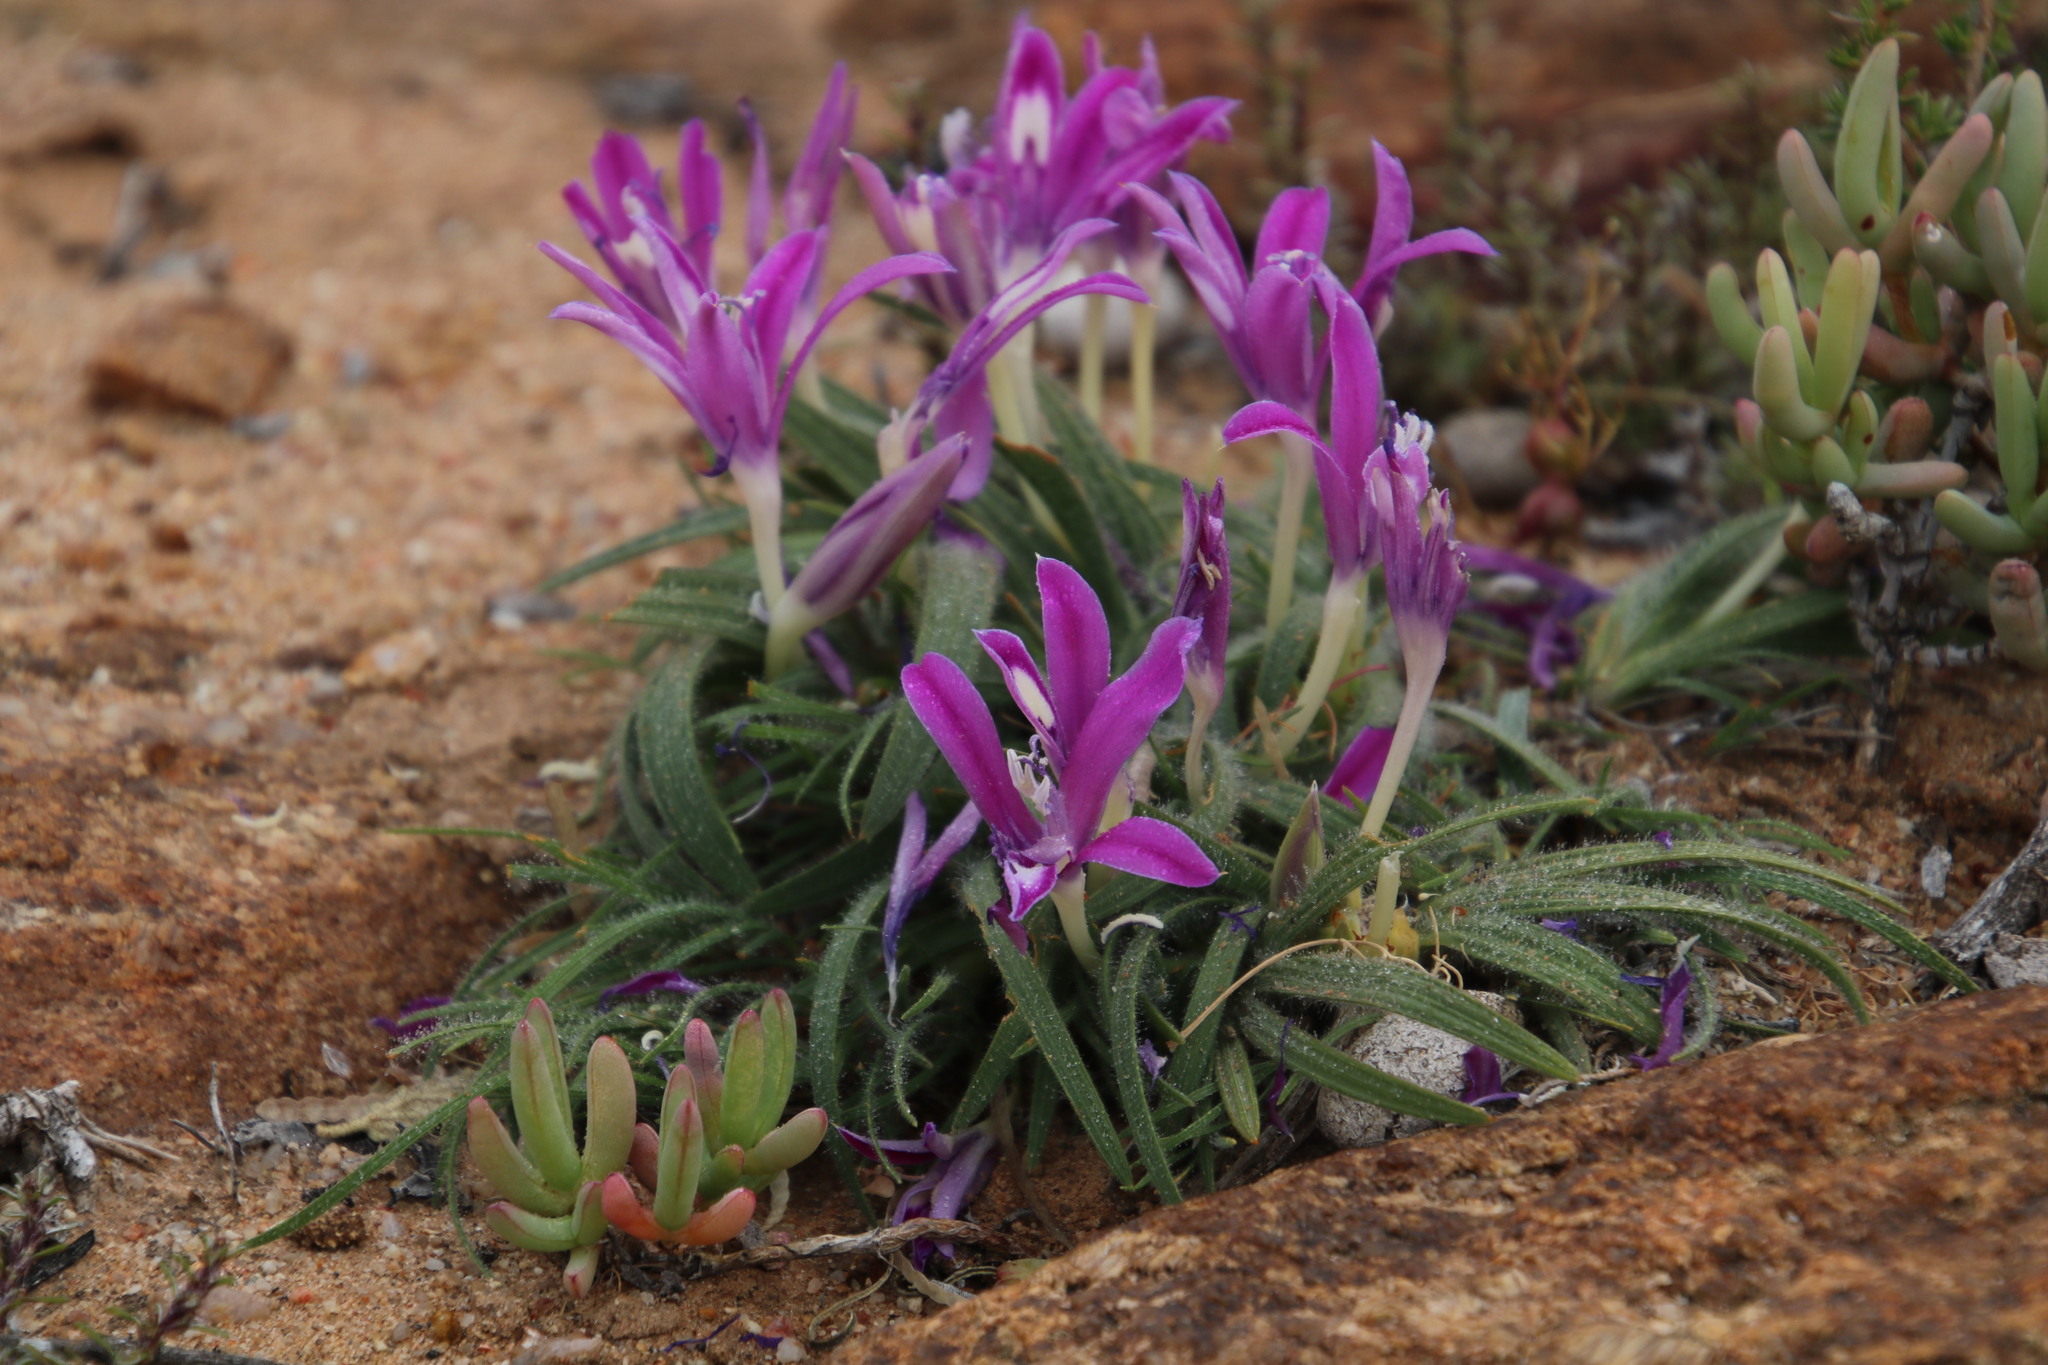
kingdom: Plantae
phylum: Tracheophyta
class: Liliopsida
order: Asparagales
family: Iridaceae
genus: Babiana
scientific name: Babiana curviscapa
